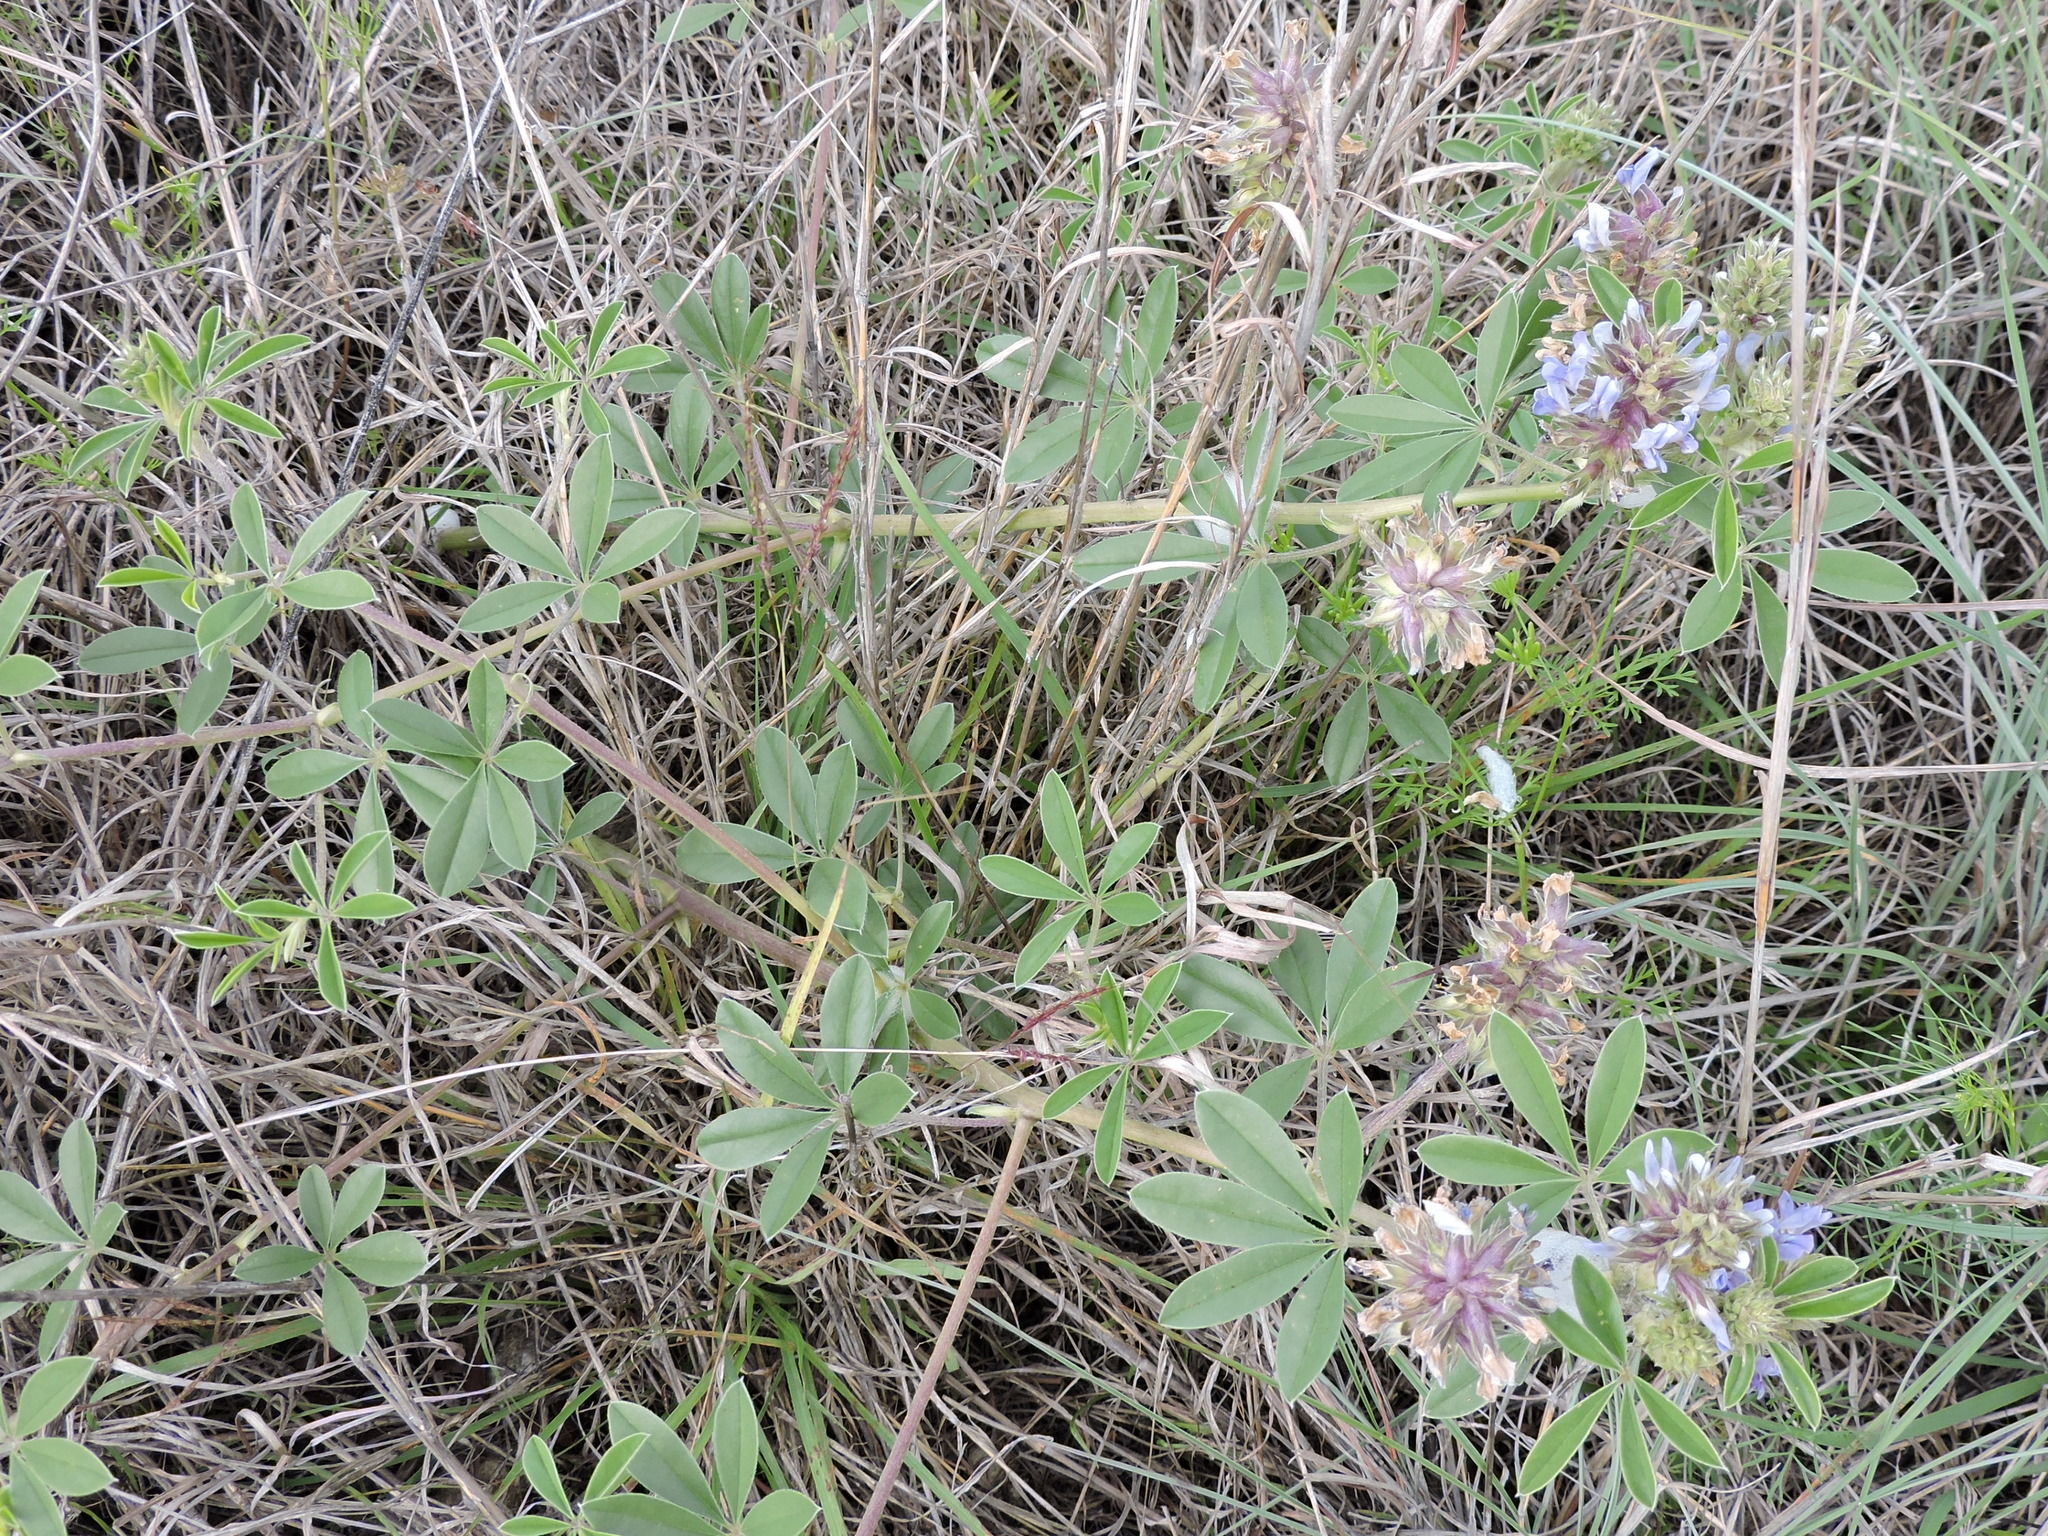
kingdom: Plantae
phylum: Tracheophyta
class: Magnoliopsida
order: Fabales
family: Fabaceae
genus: Pediomelum
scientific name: Pediomelum cuspidatum
